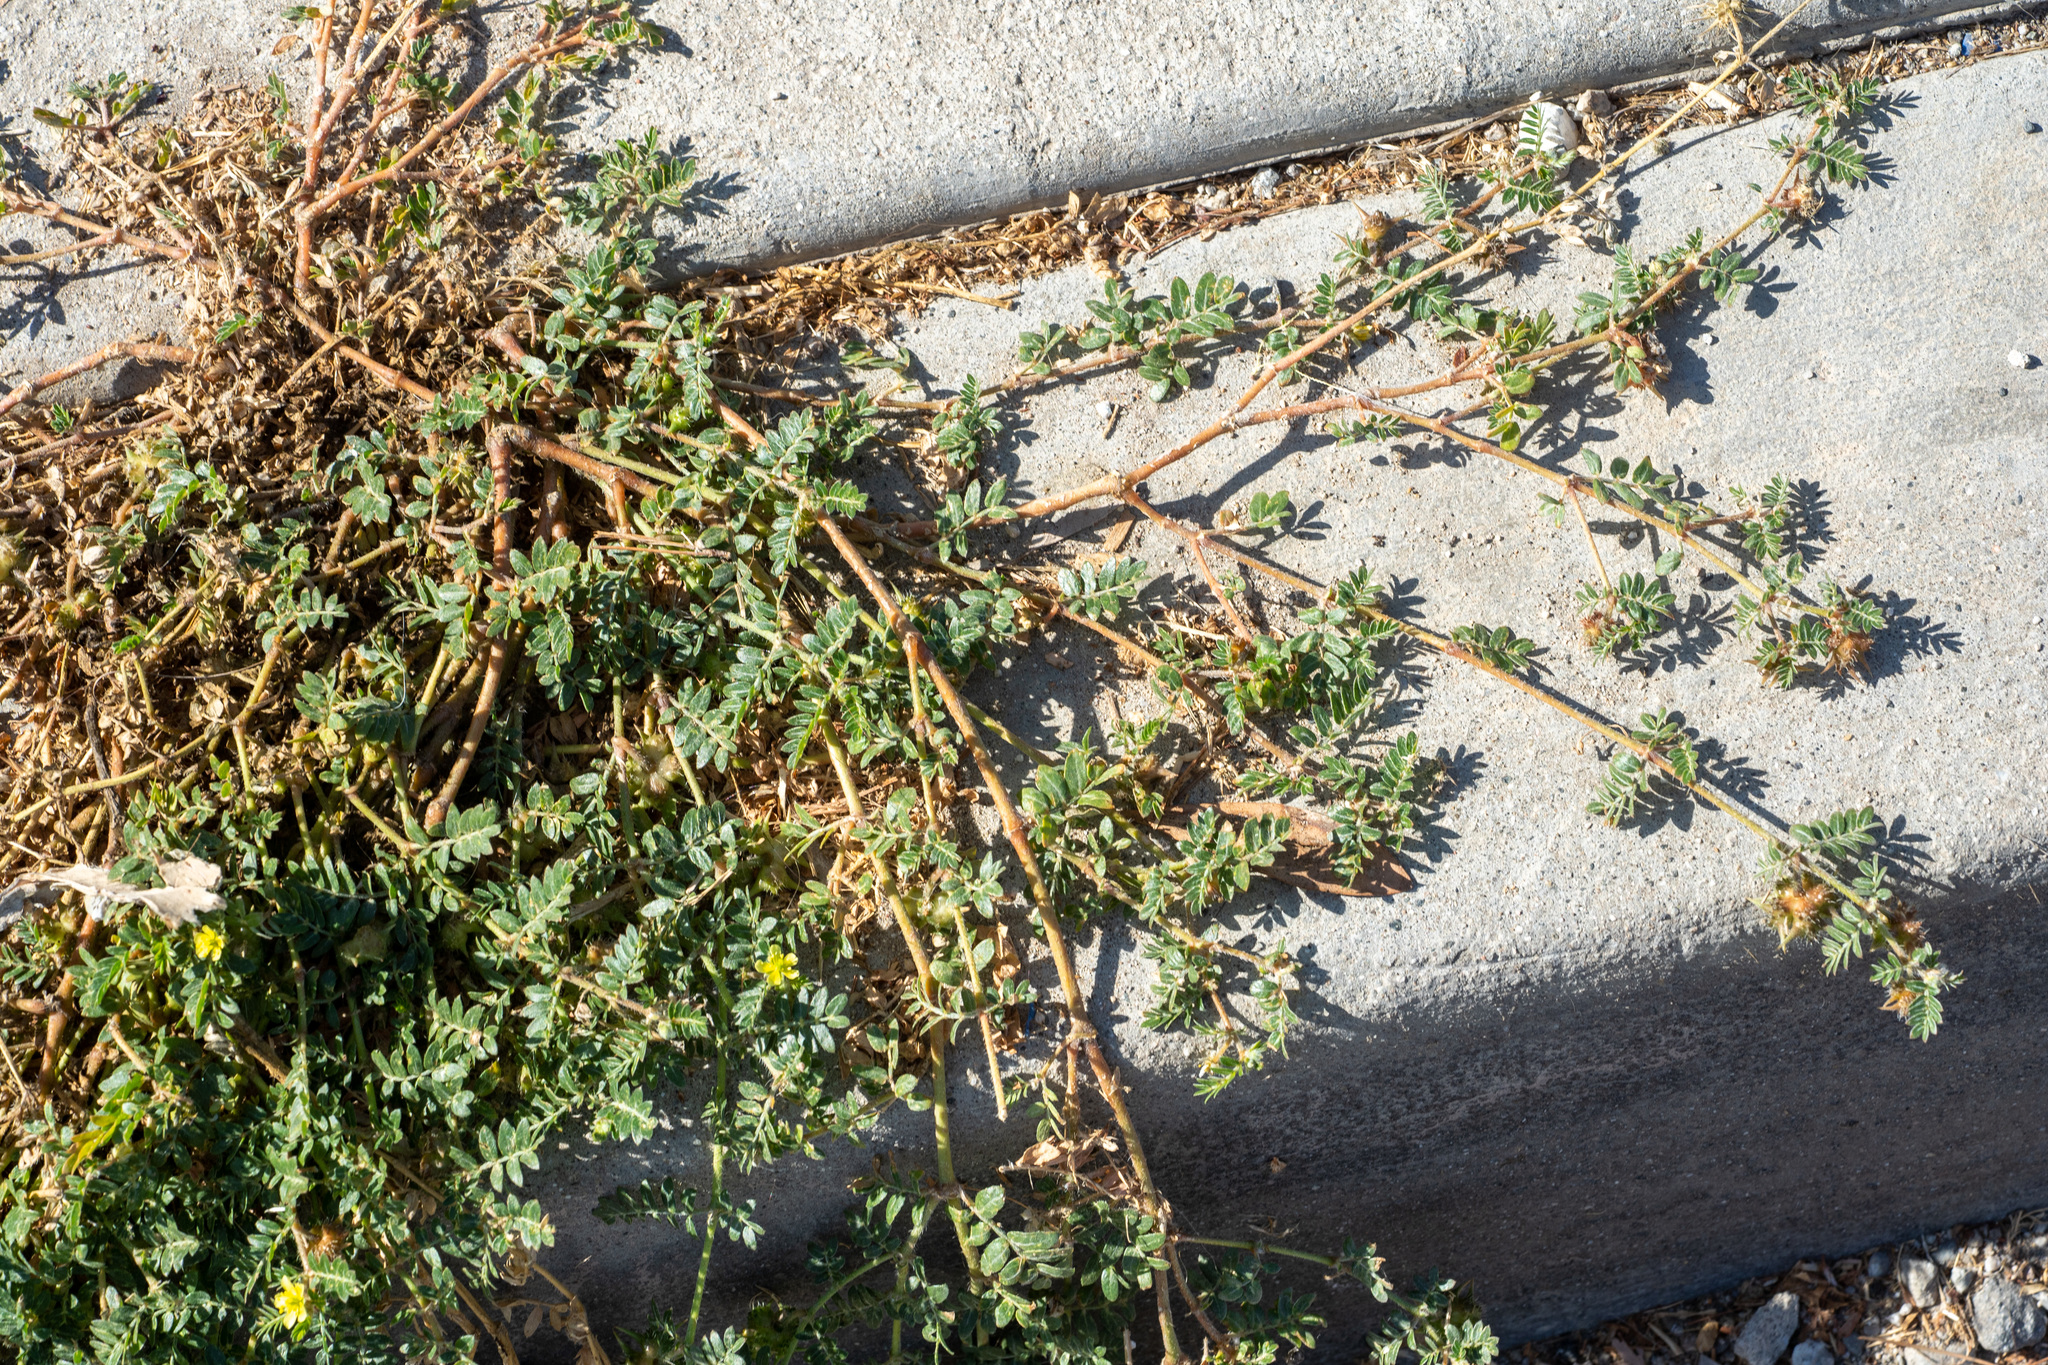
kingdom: Plantae
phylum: Tracheophyta
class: Magnoliopsida
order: Zygophyllales
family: Zygophyllaceae
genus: Tribulus
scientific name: Tribulus terrestris
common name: Puncturevine
